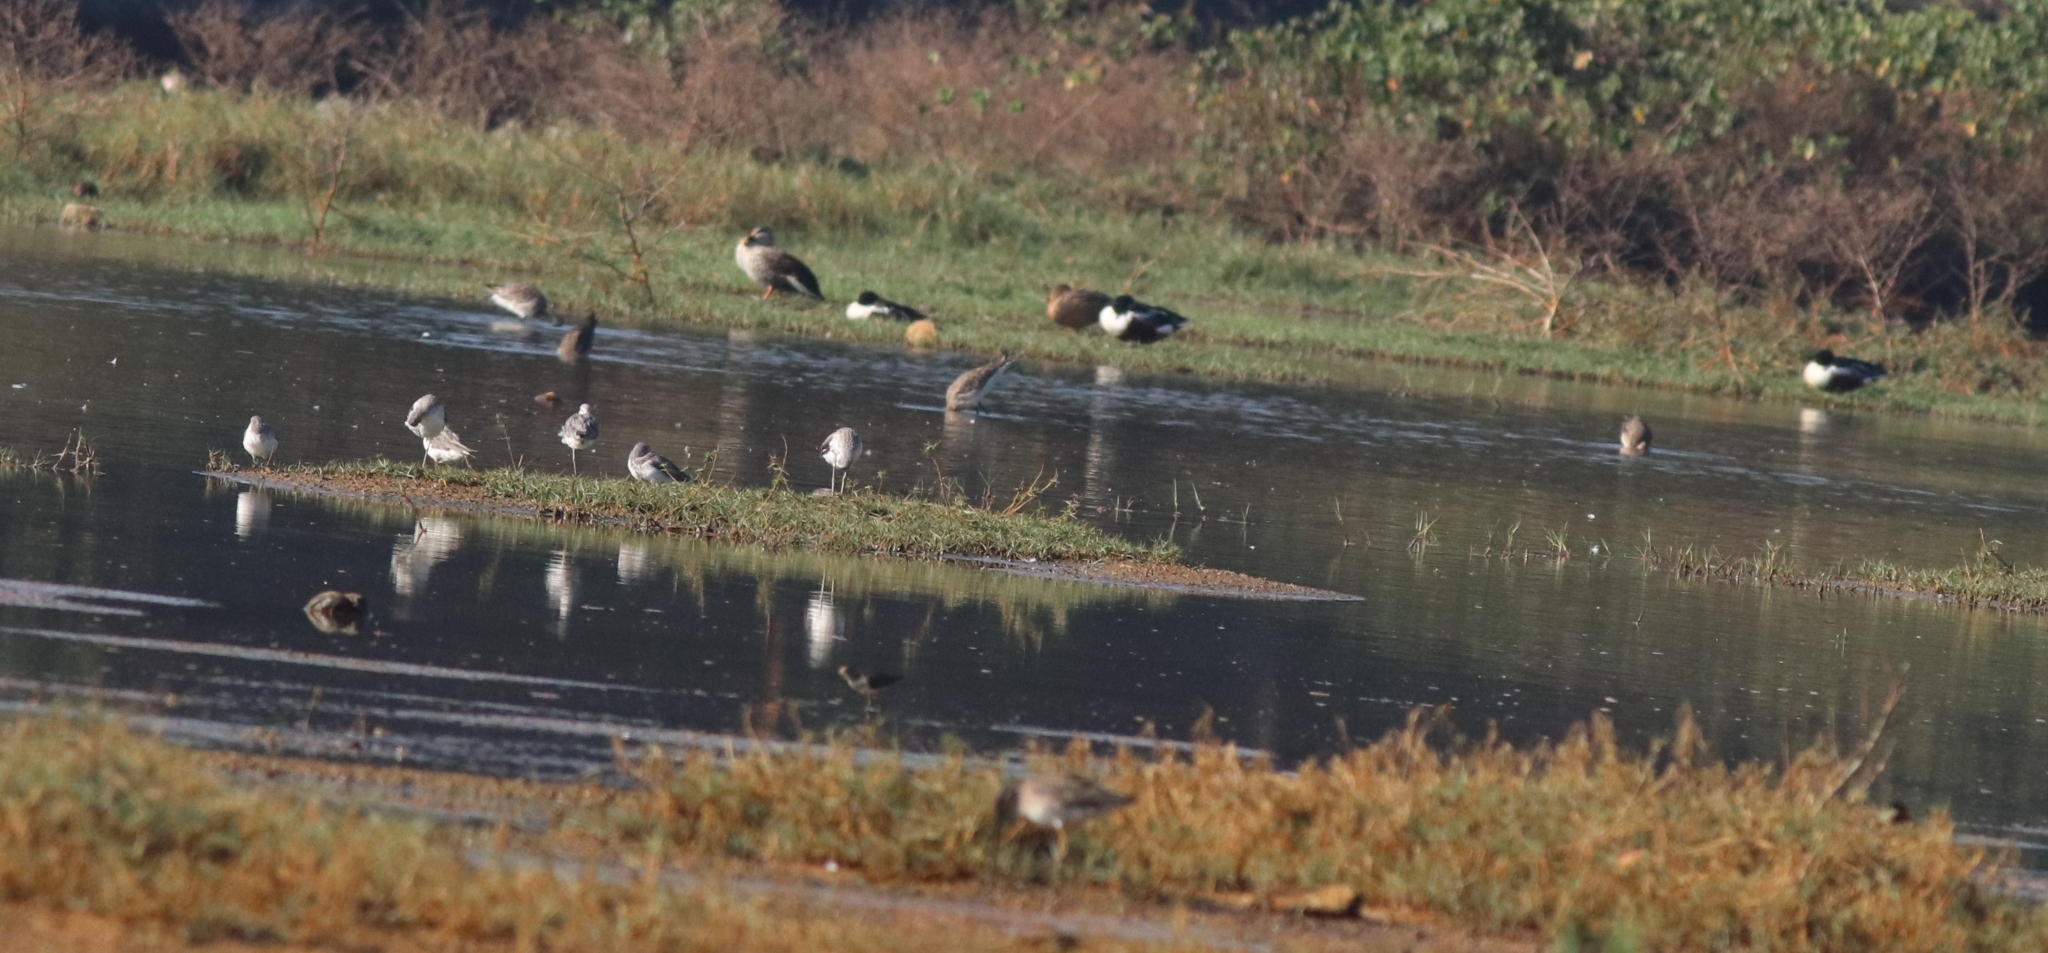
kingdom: Animalia
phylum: Chordata
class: Aves
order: Anseriformes
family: Anatidae
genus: Spatula
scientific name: Spatula clypeata
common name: Northern shoveler
